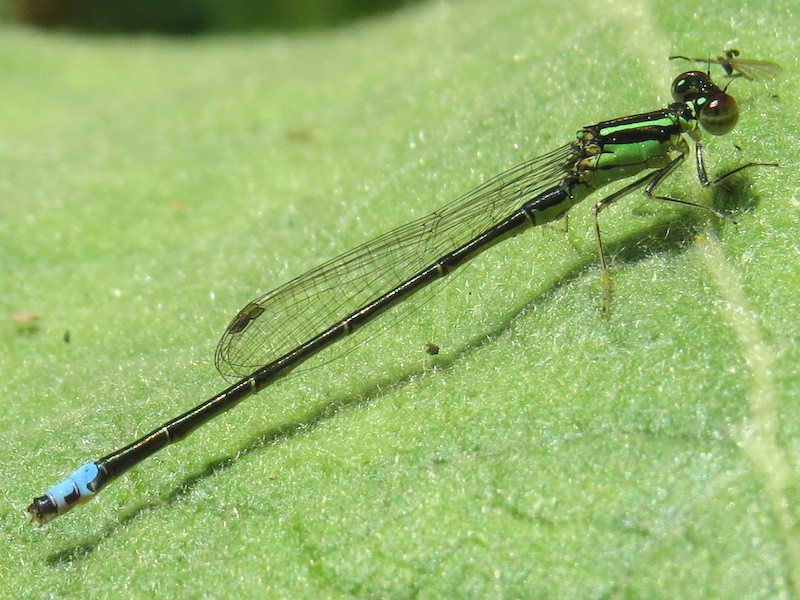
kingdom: Animalia
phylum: Arthropoda
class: Insecta
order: Odonata
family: Coenagrionidae
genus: Ischnura
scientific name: Ischnura verticalis
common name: Eastern forktail
